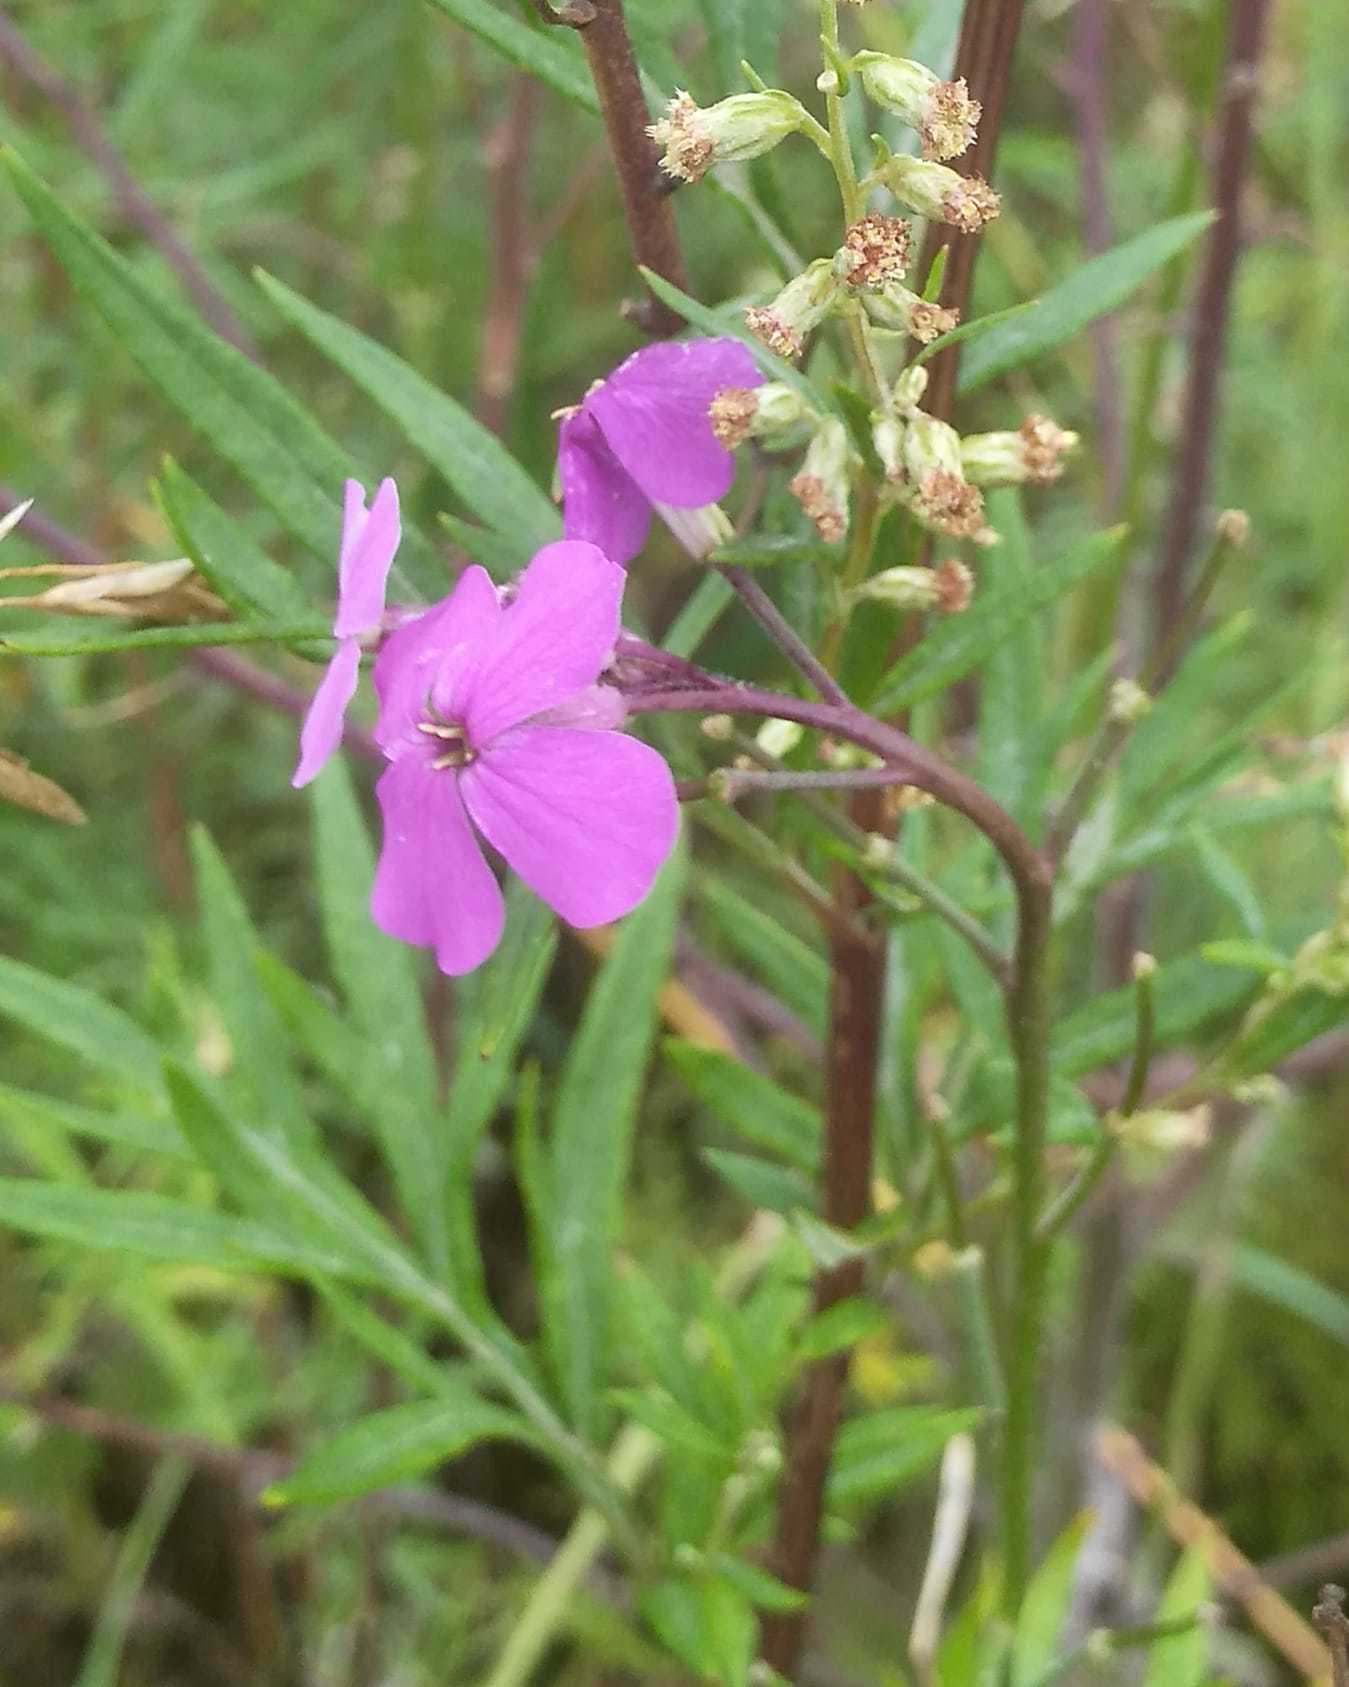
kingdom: Plantae
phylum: Tracheophyta
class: Magnoliopsida
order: Brassicales
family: Brassicaceae
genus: Hesperis
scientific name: Hesperis sibirica
